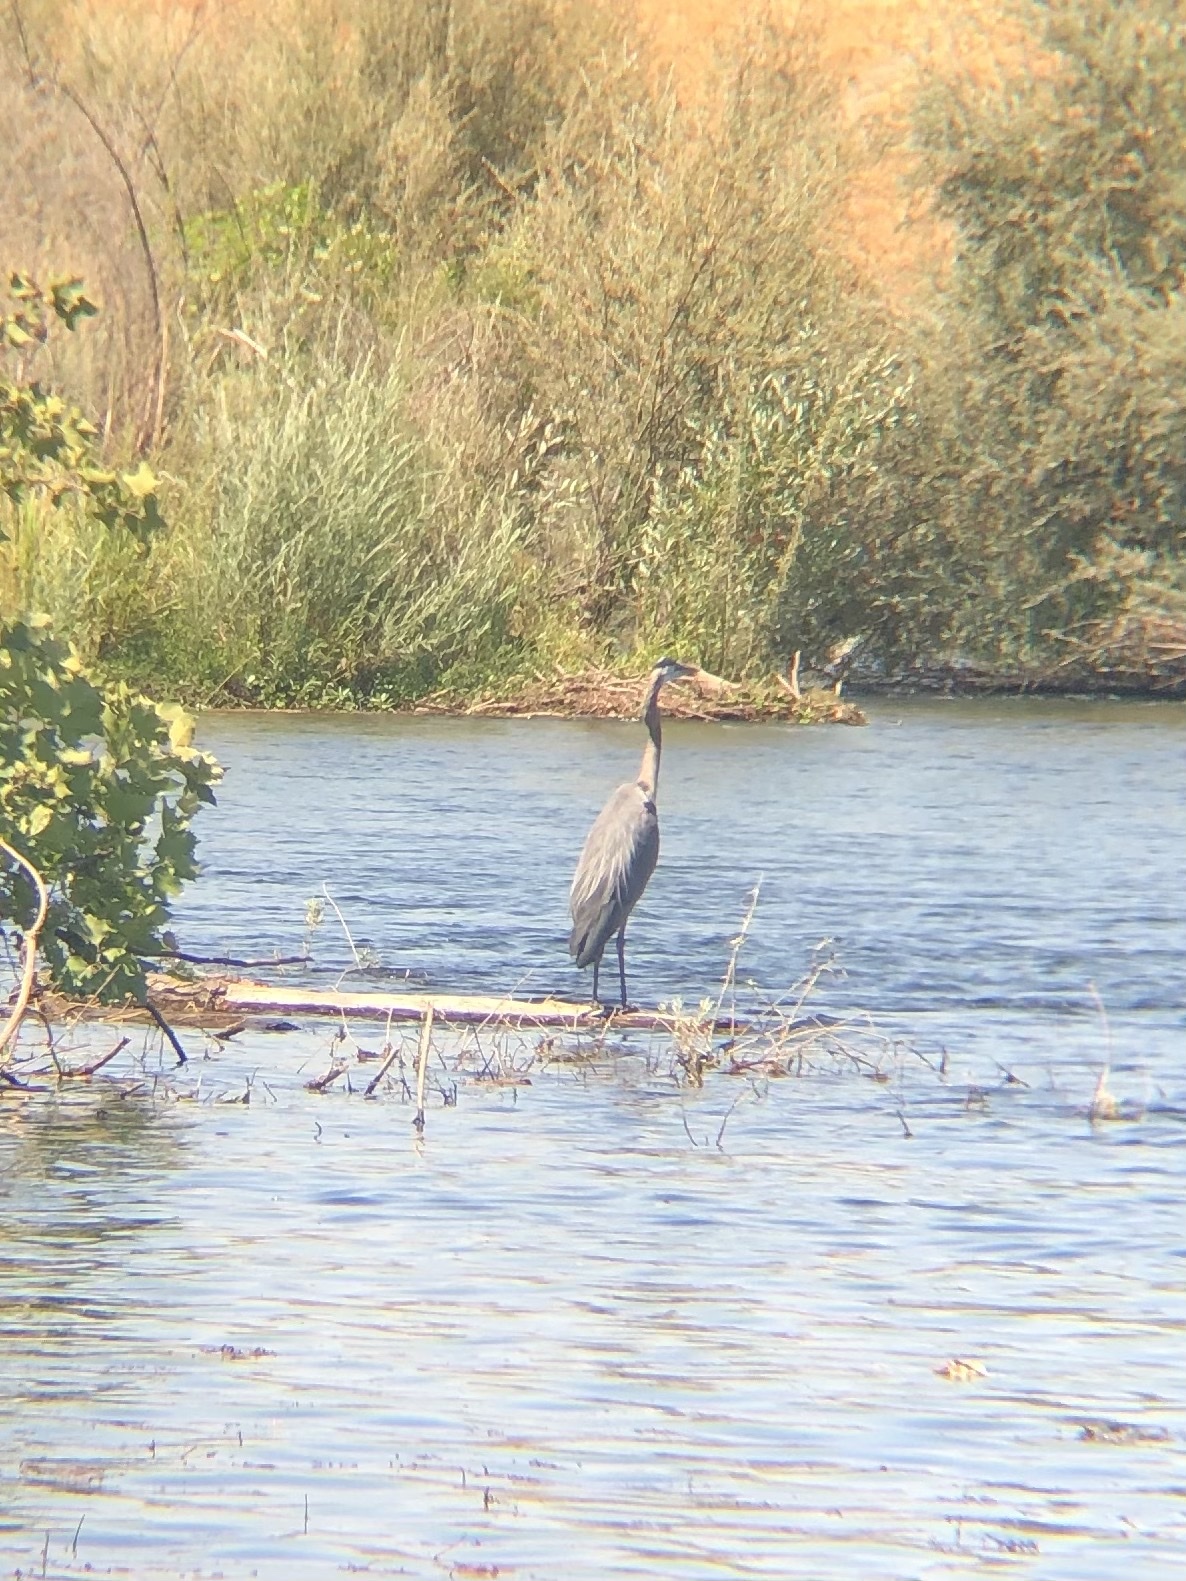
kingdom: Animalia
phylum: Chordata
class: Aves
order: Pelecaniformes
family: Ardeidae
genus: Ardea
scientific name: Ardea herodias
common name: Great blue heron
